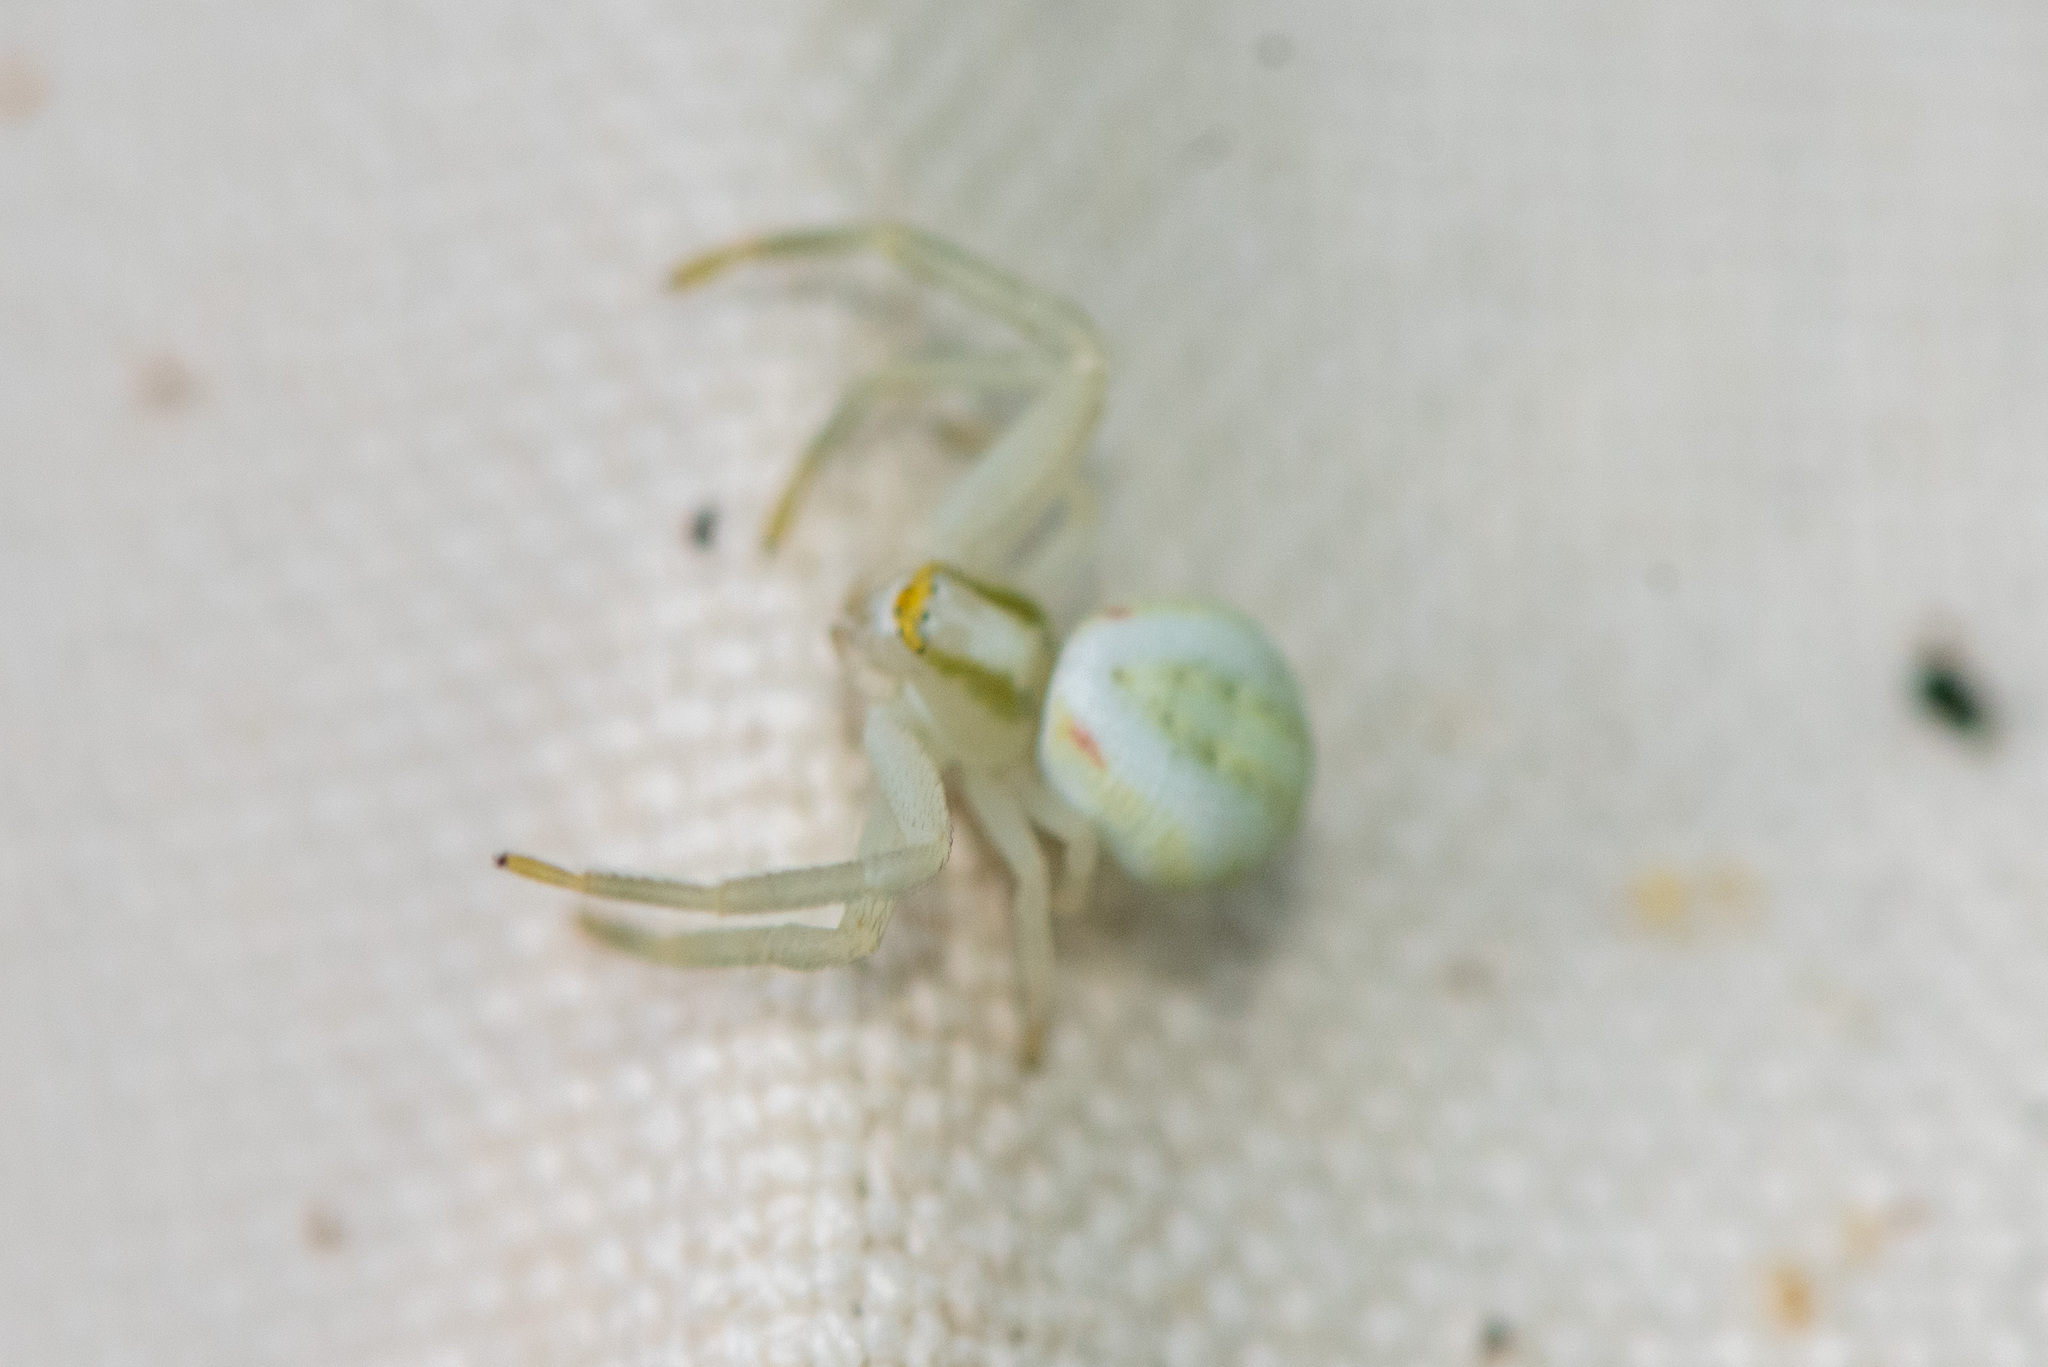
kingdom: Animalia
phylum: Arthropoda
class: Arachnida
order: Araneae
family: Thomisidae
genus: Misumena
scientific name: Misumena vatia
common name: Goldenrod crab spider
